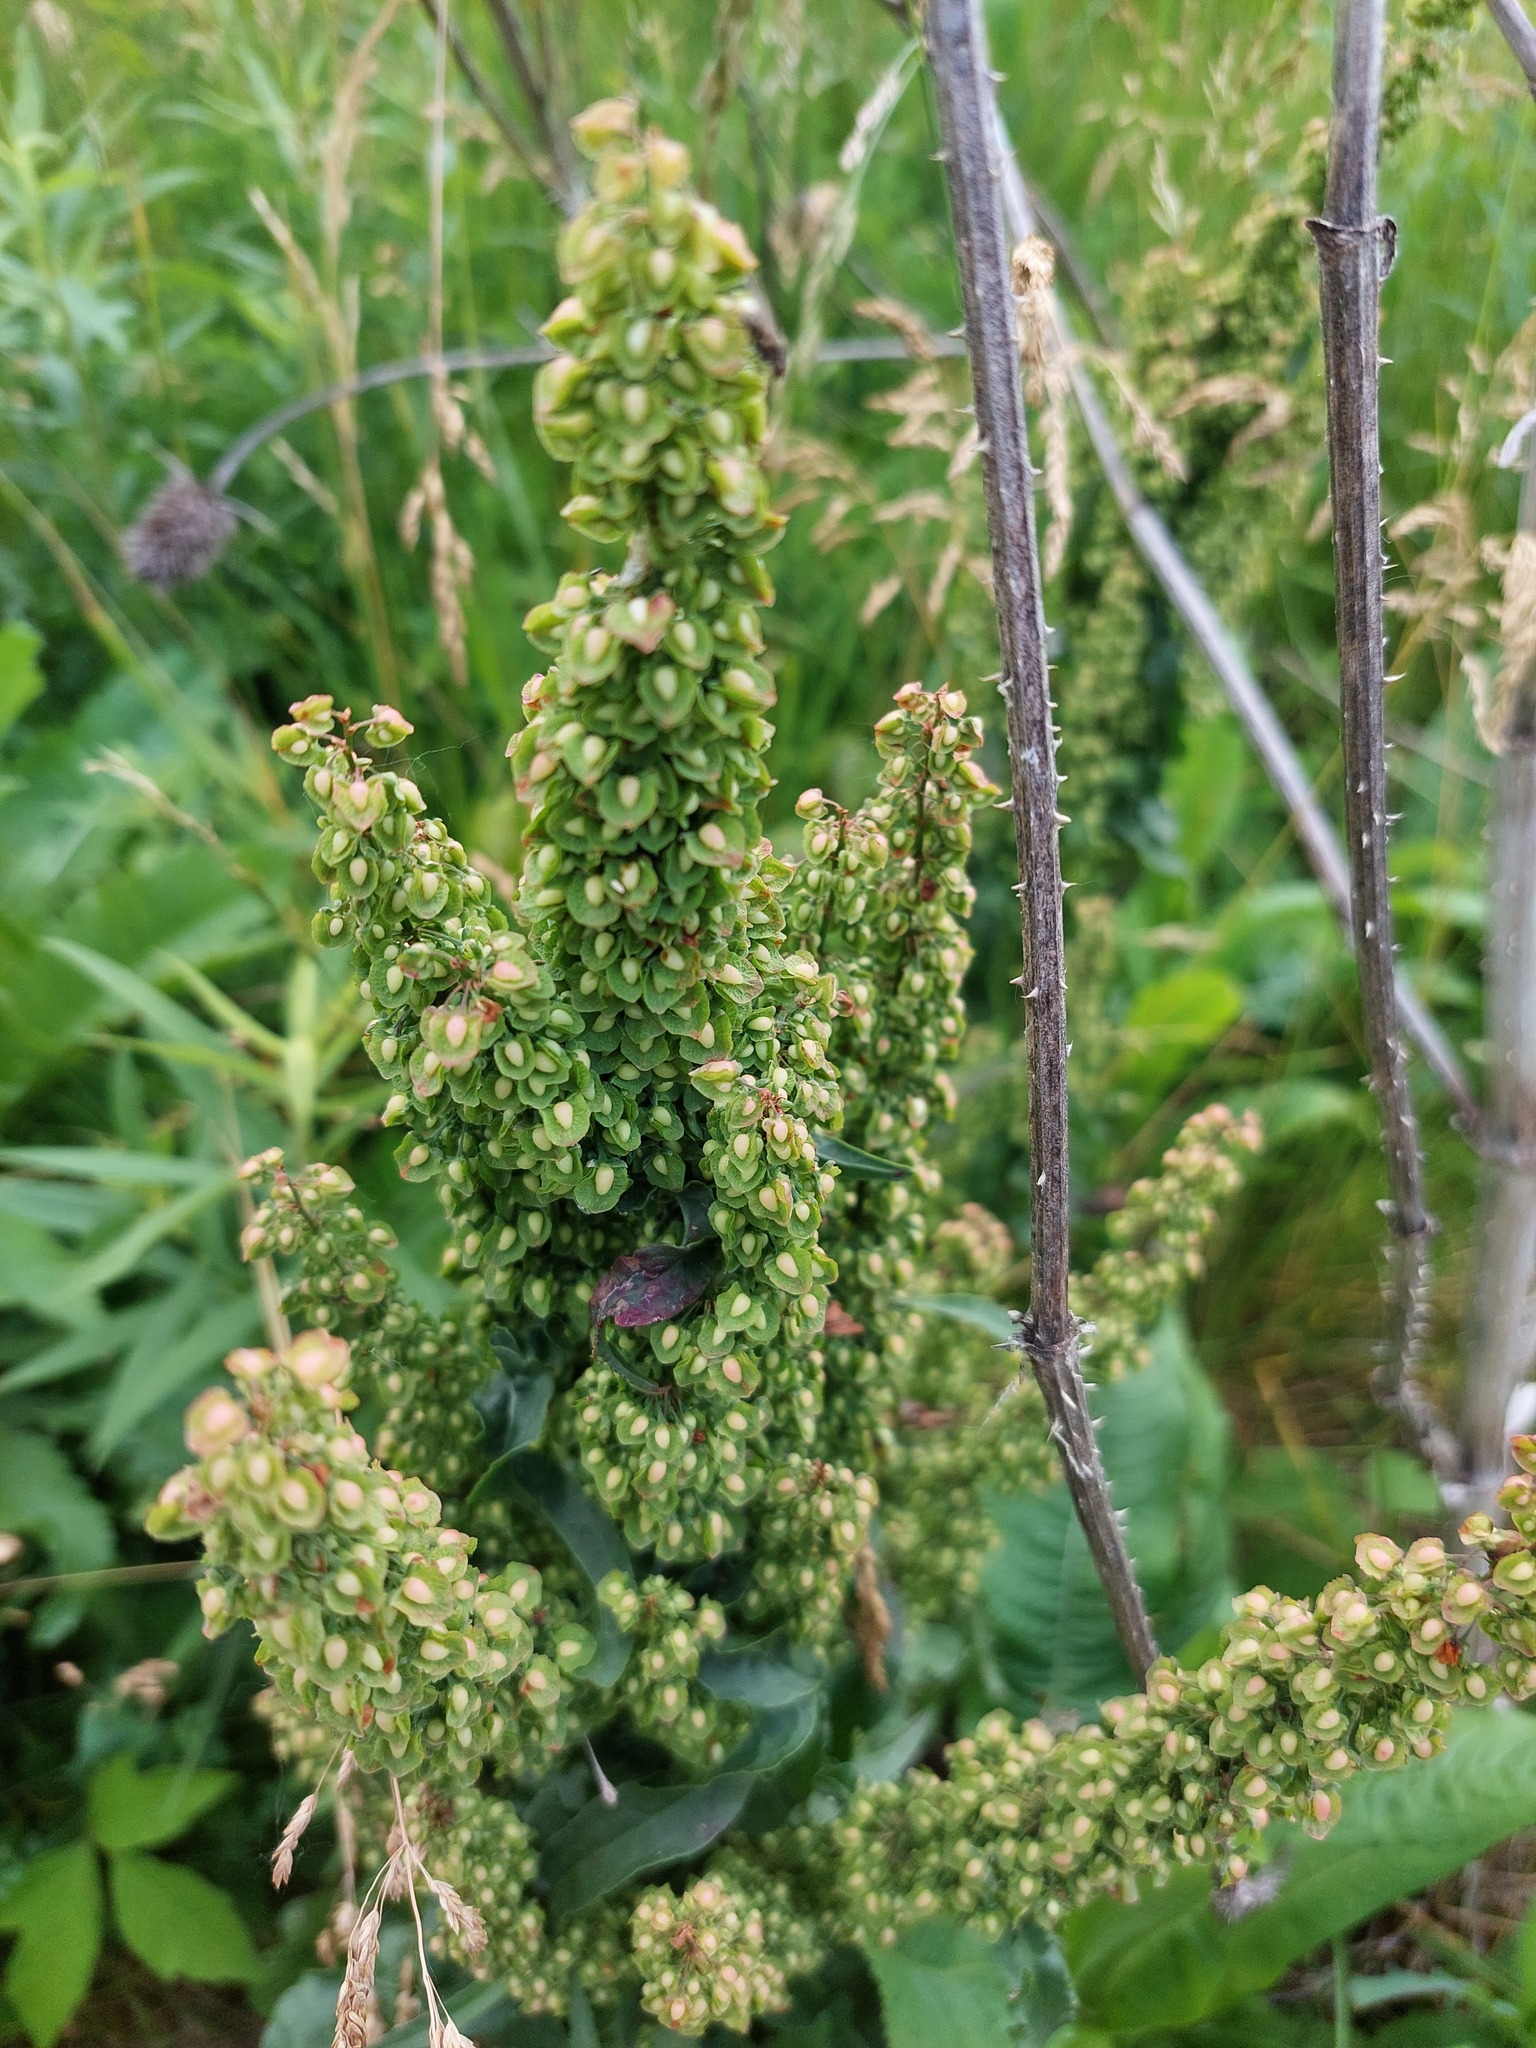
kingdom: Plantae
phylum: Tracheophyta
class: Magnoliopsida
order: Caryophyllales
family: Polygonaceae
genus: Rumex
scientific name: Rumex crispus
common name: Curled dock
